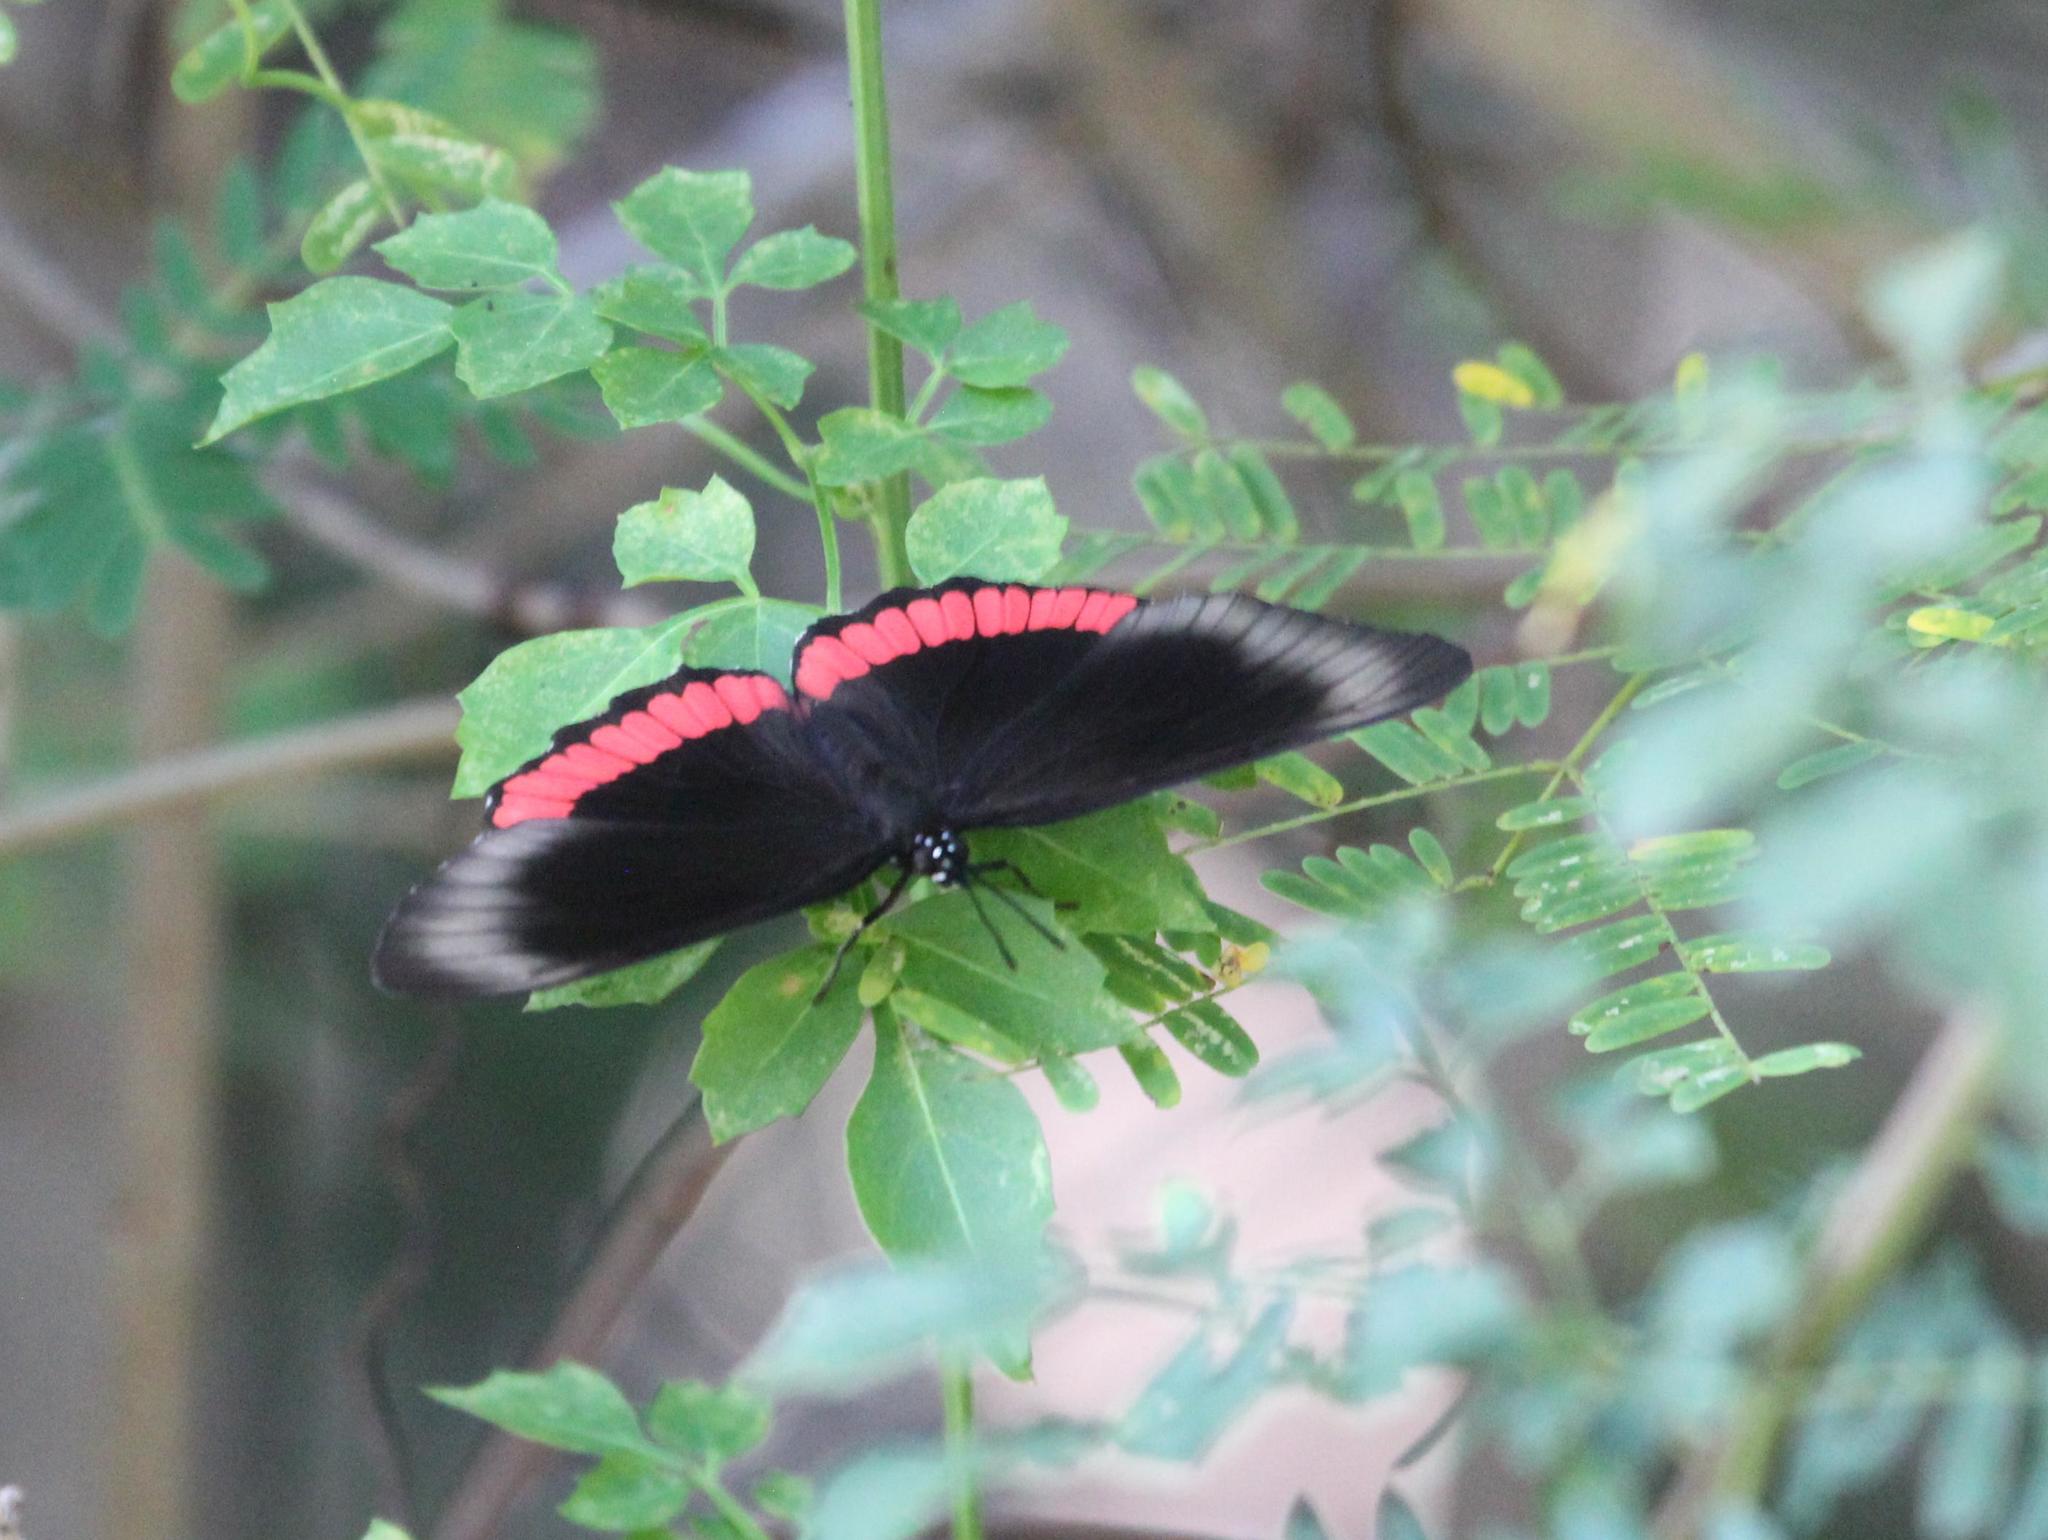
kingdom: Animalia
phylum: Arthropoda
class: Insecta
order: Lepidoptera
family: Sesiidae
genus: Sesia
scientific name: Sesia Biblis hyperia
